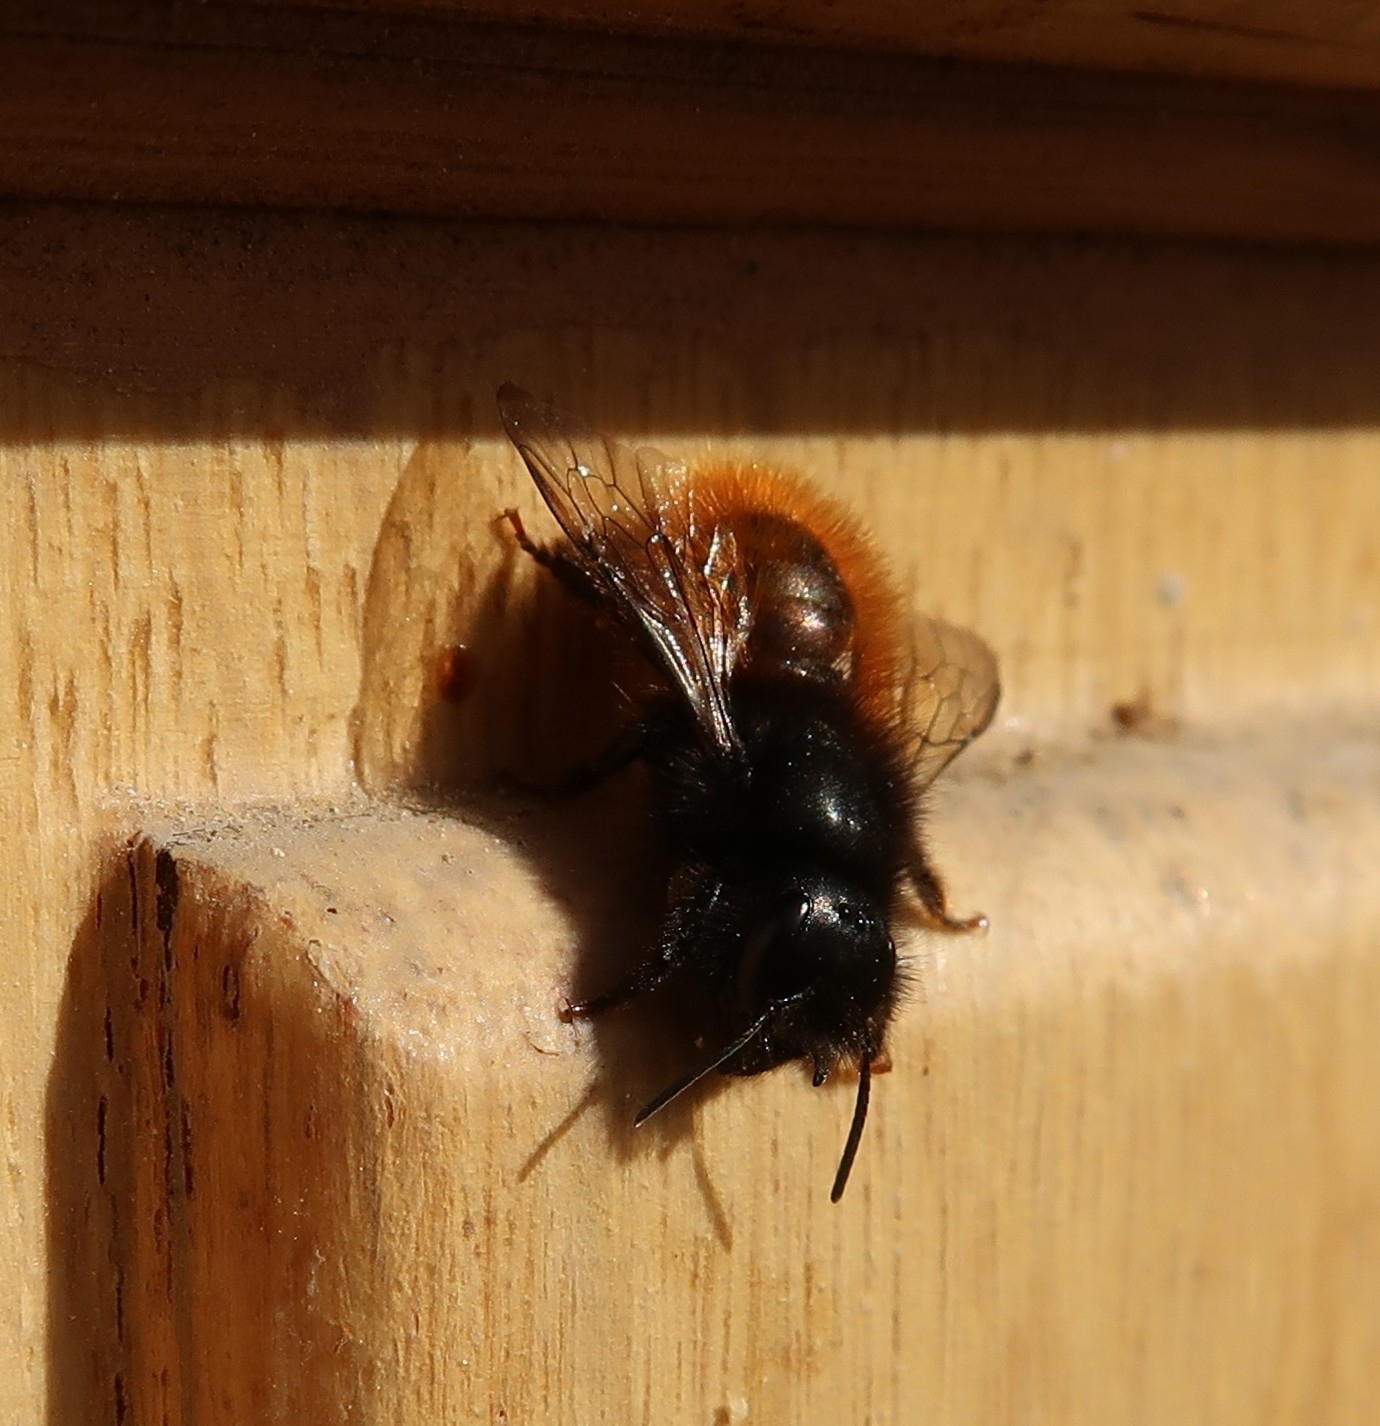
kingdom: Animalia
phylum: Arthropoda
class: Insecta
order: Hymenoptera
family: Megachilidae
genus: Osmia
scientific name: Osmia cornuta
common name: Mason bee
